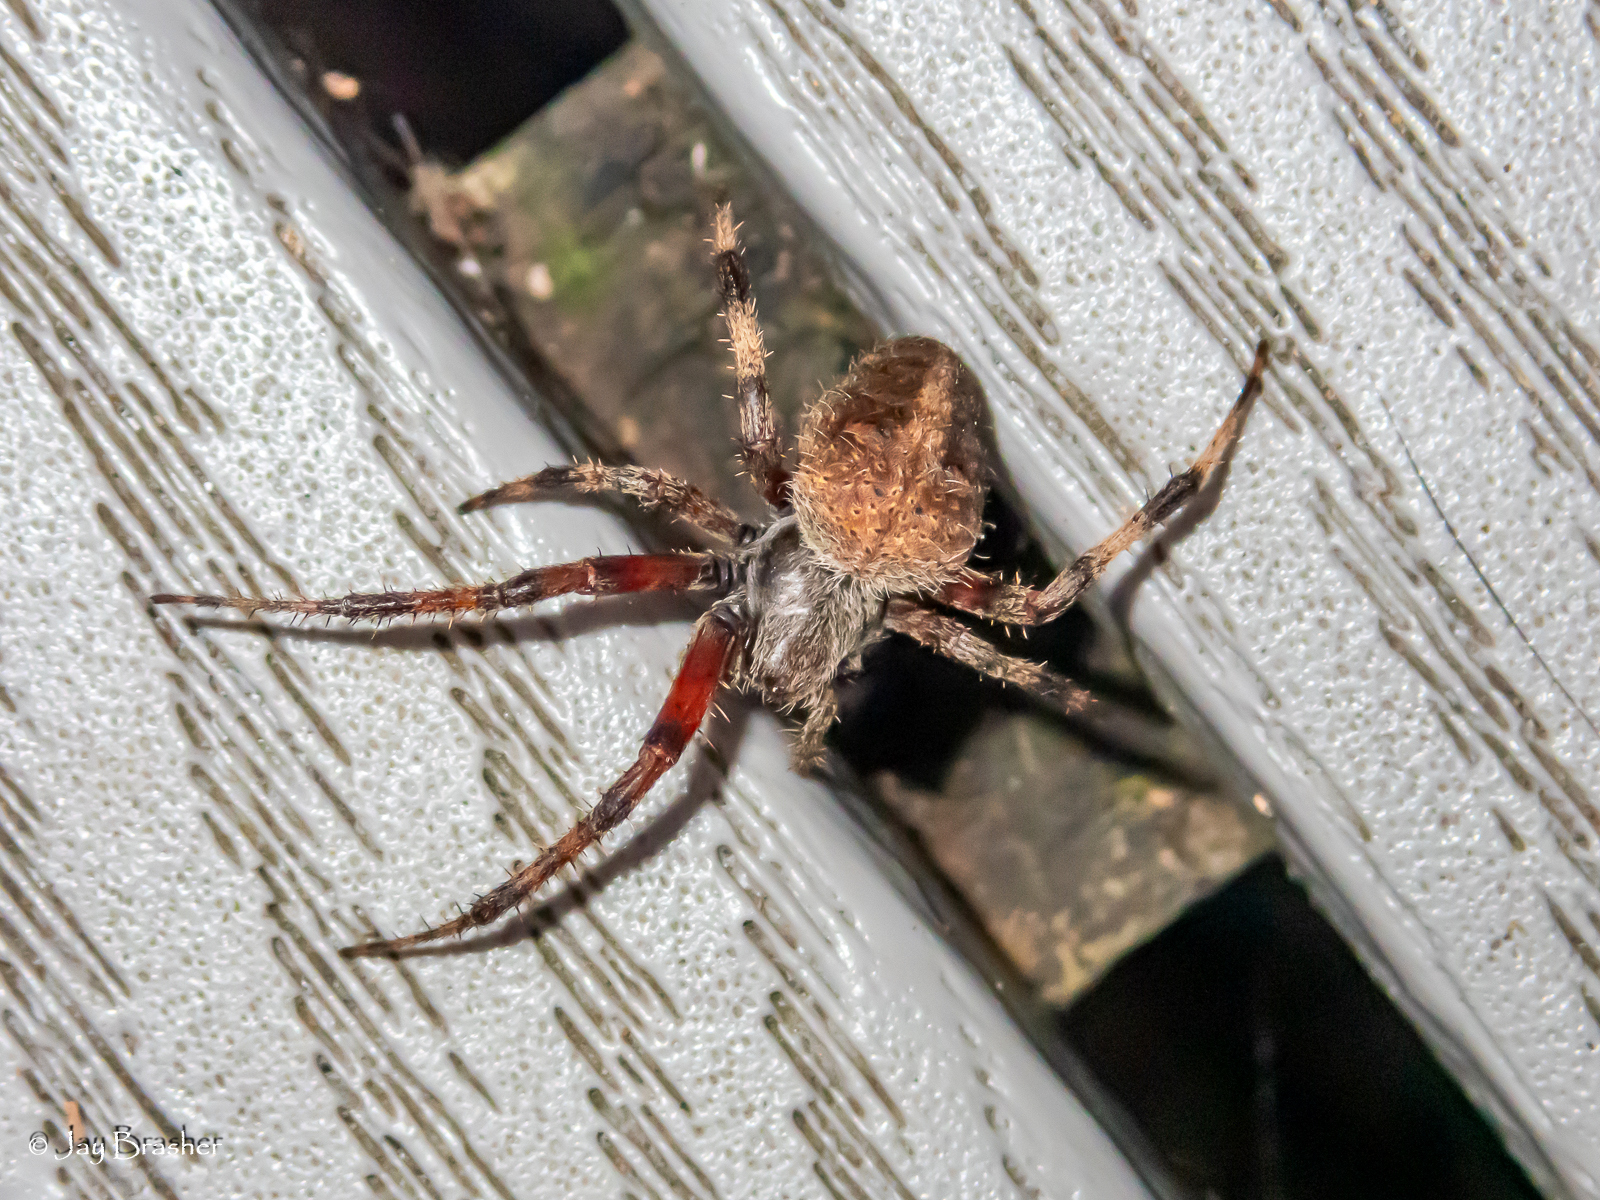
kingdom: Animalia
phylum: Arthropoda
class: Arachnida
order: Araneae
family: Araneidae
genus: Neoscona
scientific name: Neoscona crucifera
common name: Spotted orbweaver
